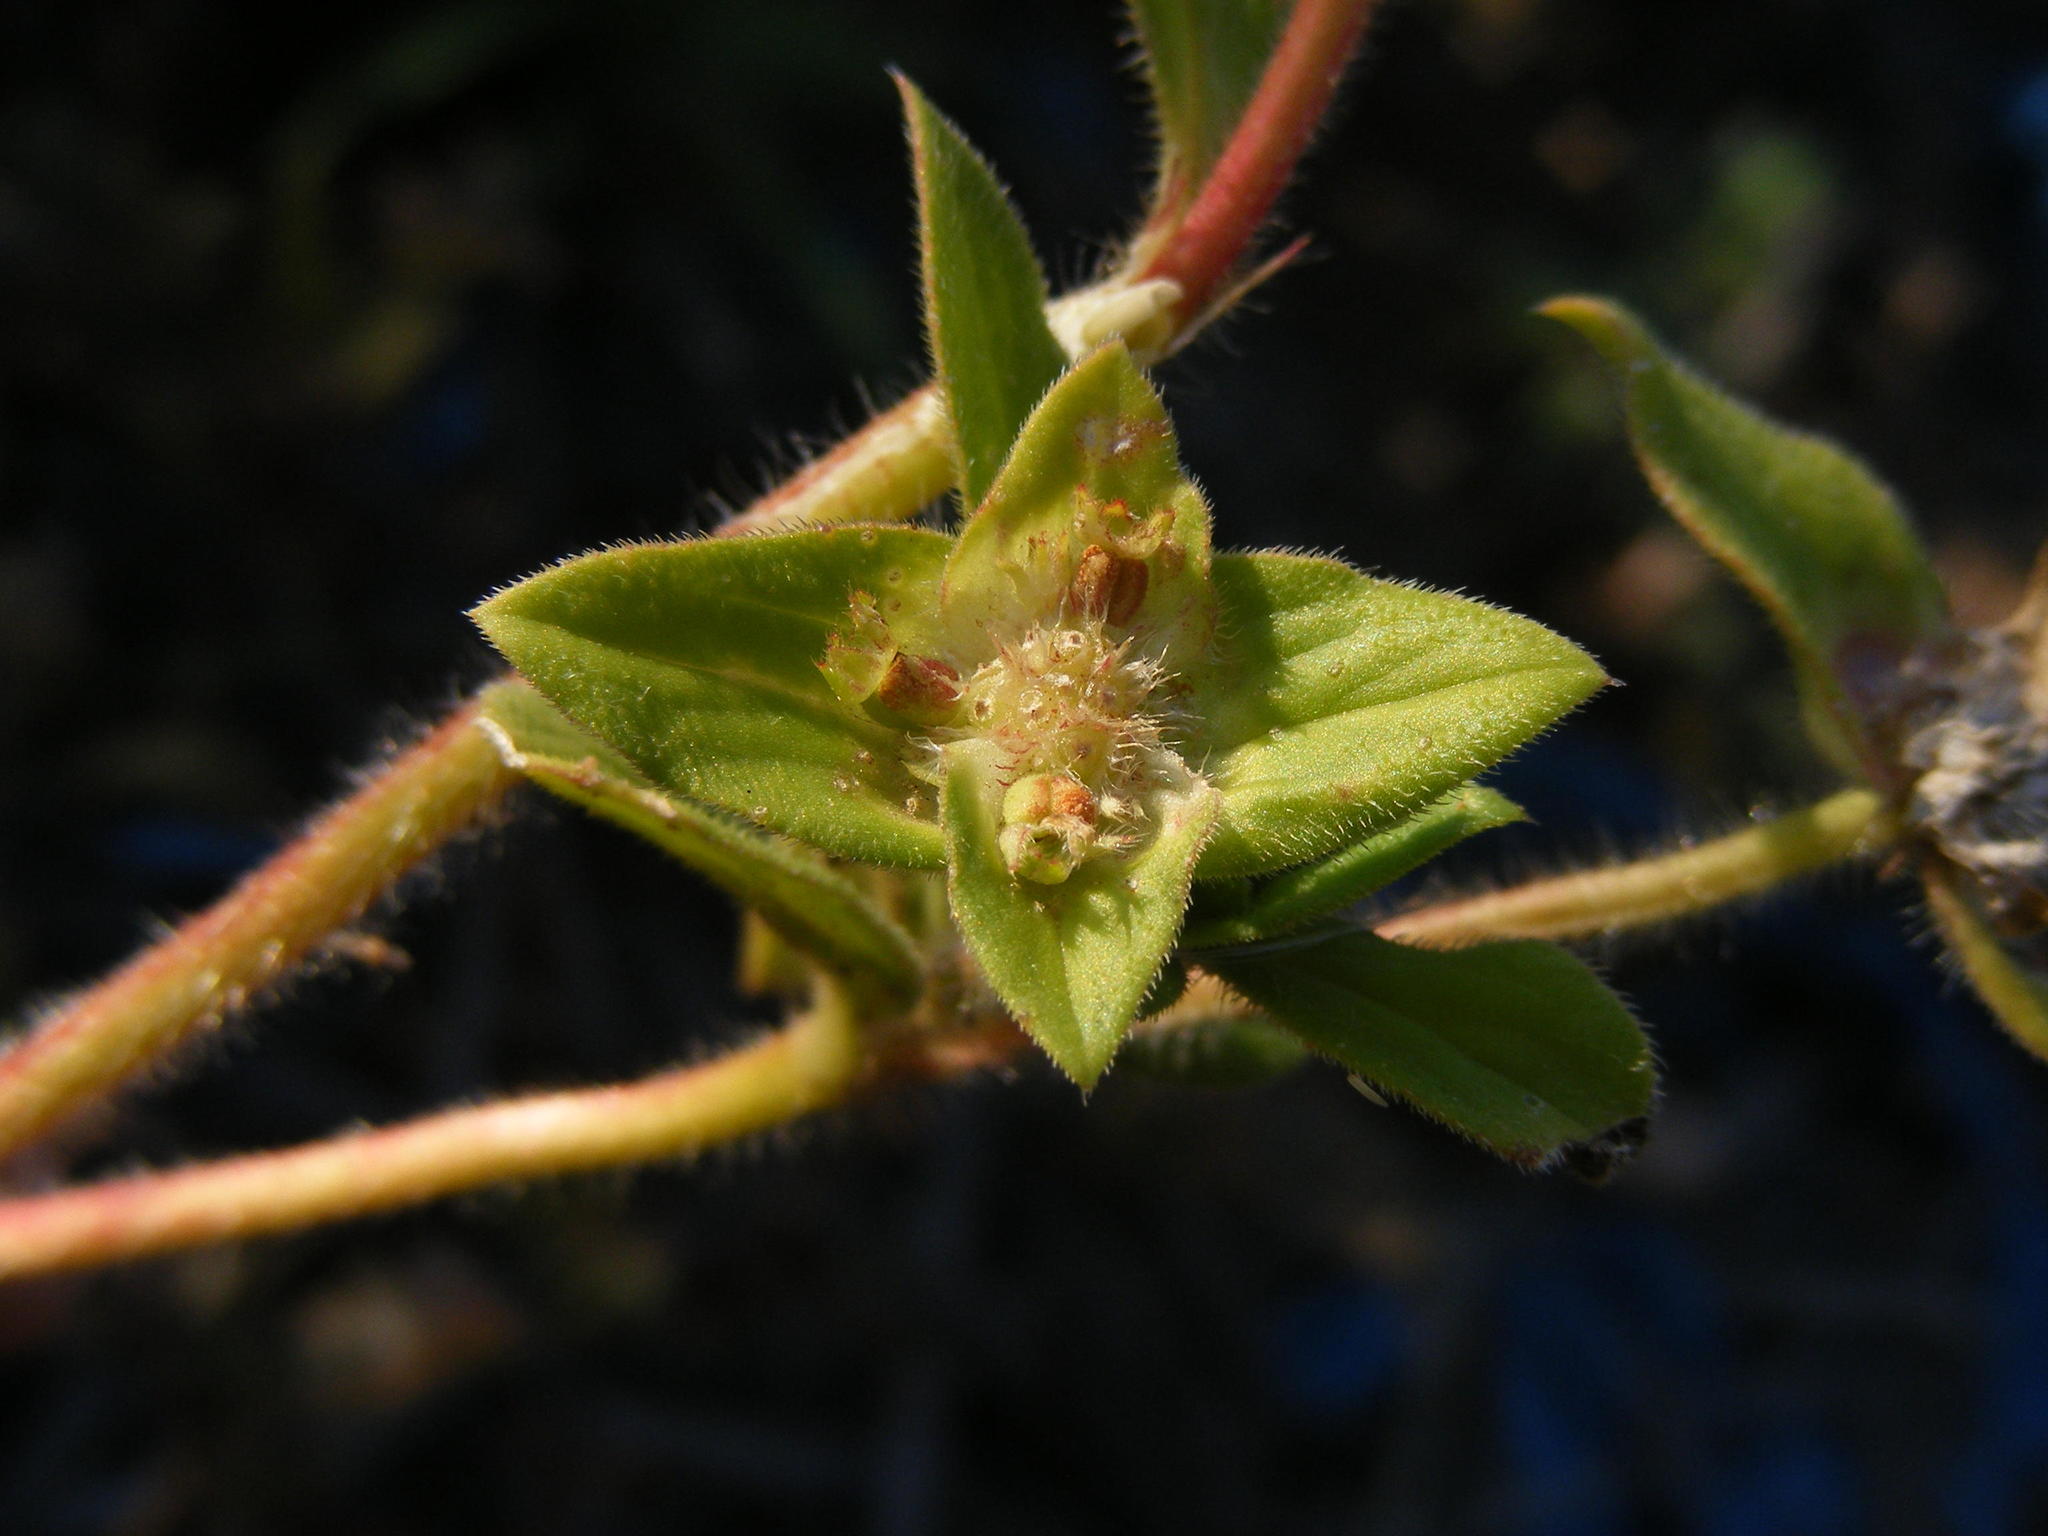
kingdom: Plantae
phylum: Tracheophyta
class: Magnoliopsida
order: Gentianales
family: Rubiaceae
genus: Richardia
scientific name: Richardia brasiliensis
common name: Tropical mexican clover
